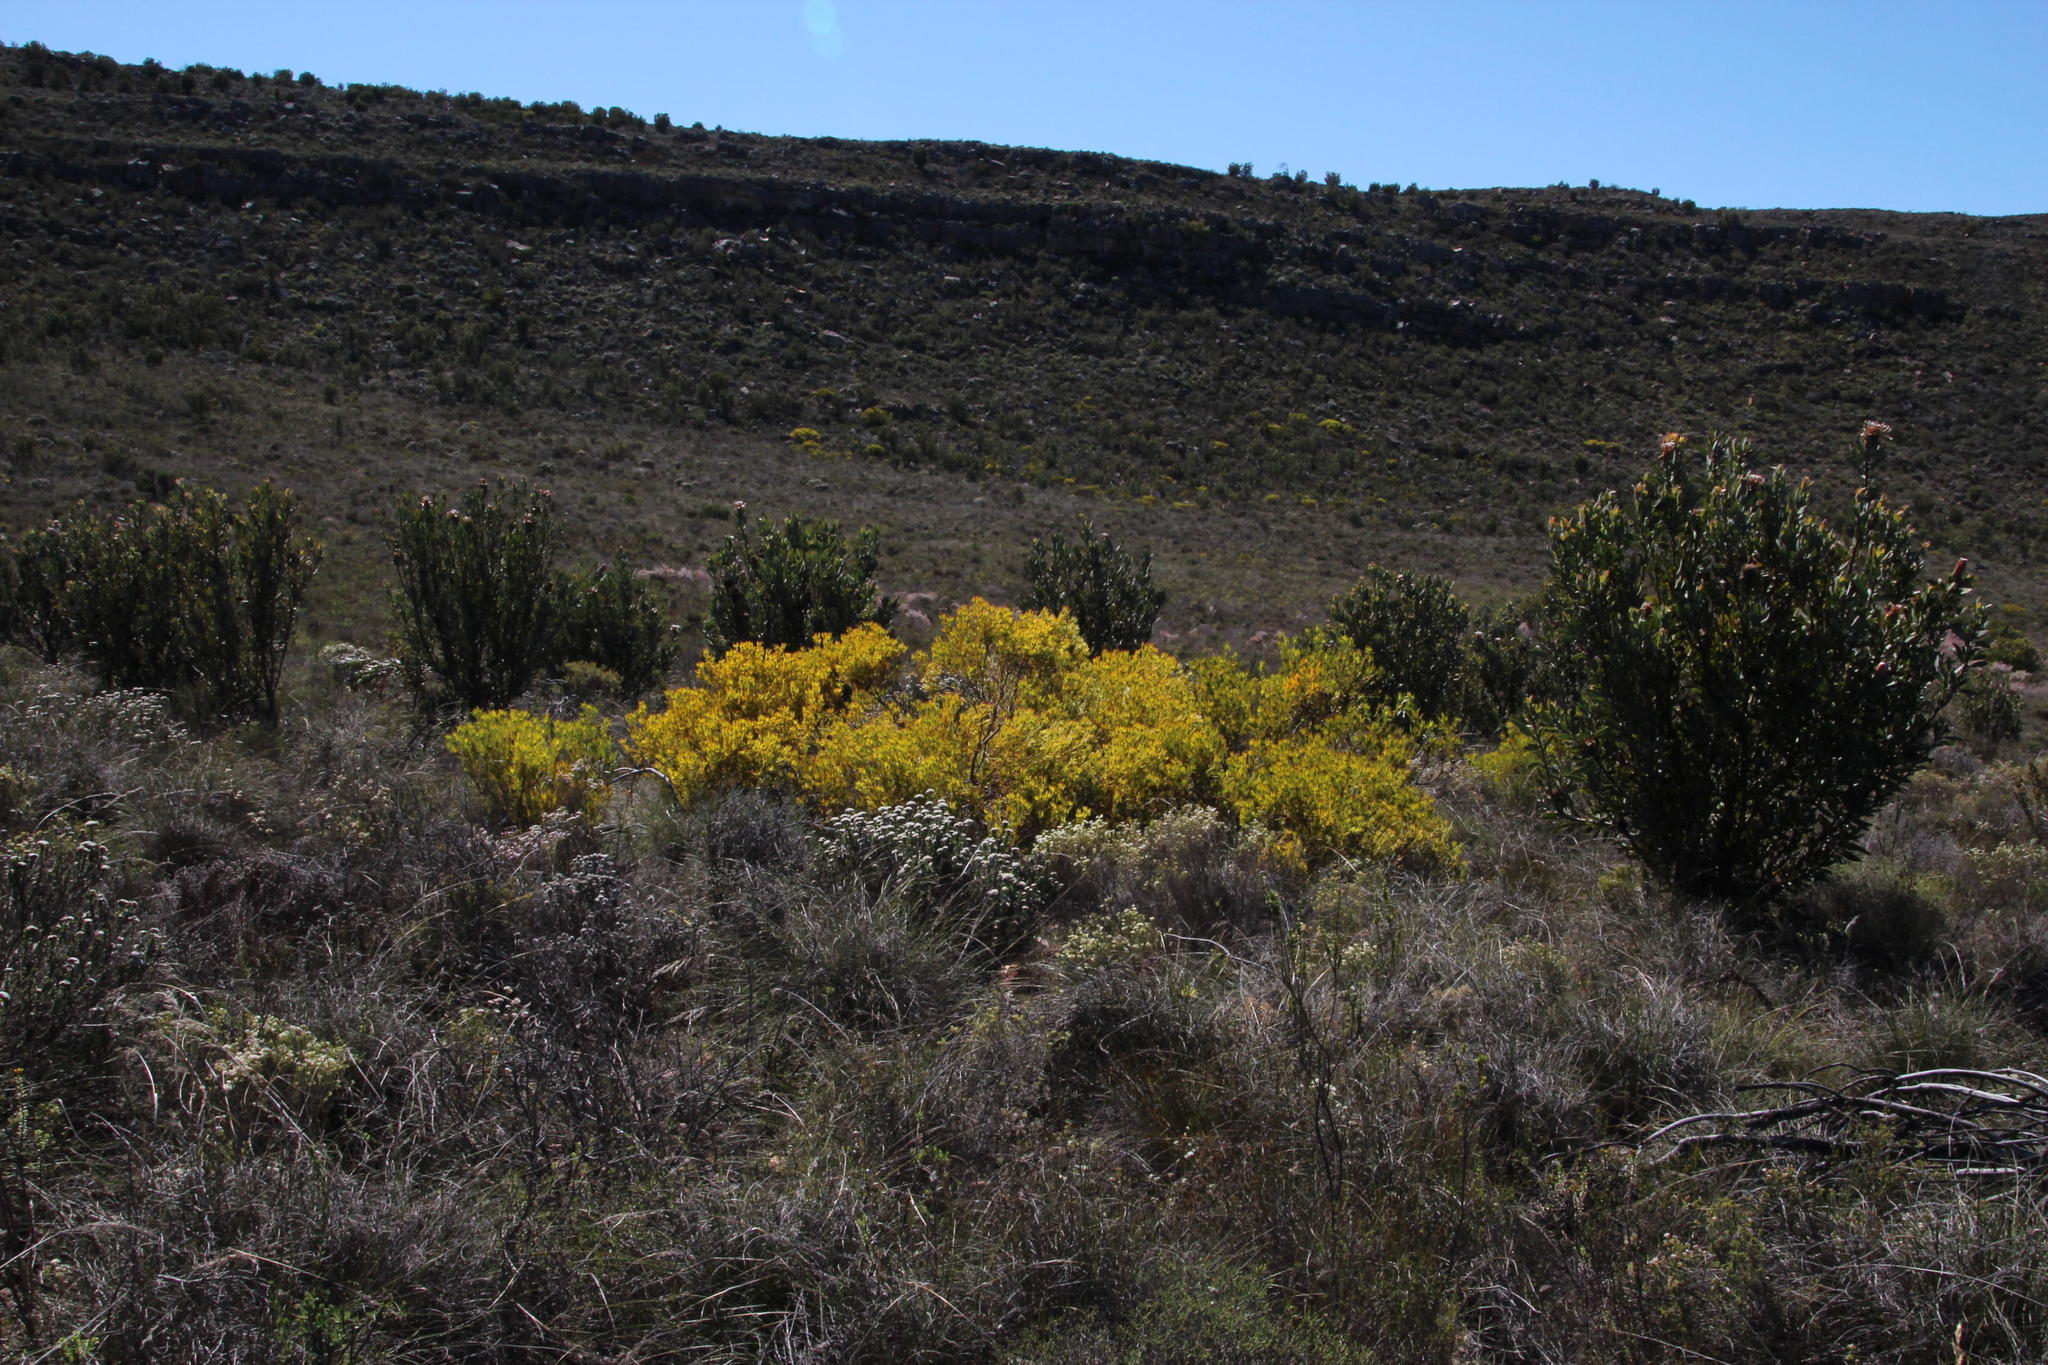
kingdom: Plantae
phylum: Tracheophyta
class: Magnoliopsida
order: Proteales
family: Proteaceae
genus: Leucadendron
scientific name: Leucadendron salignum
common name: Common sunshine conebush
